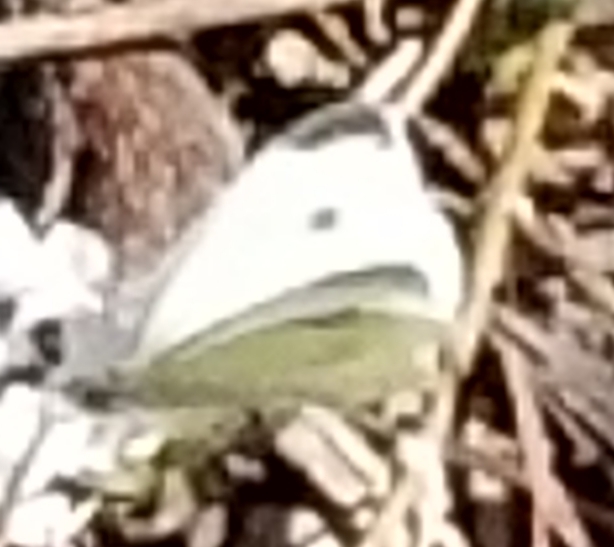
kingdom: Animalia
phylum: Arthropoda
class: Insecta
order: Lepidoptera
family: Pieridae
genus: Pieris
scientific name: Pieris rapae
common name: Small white
